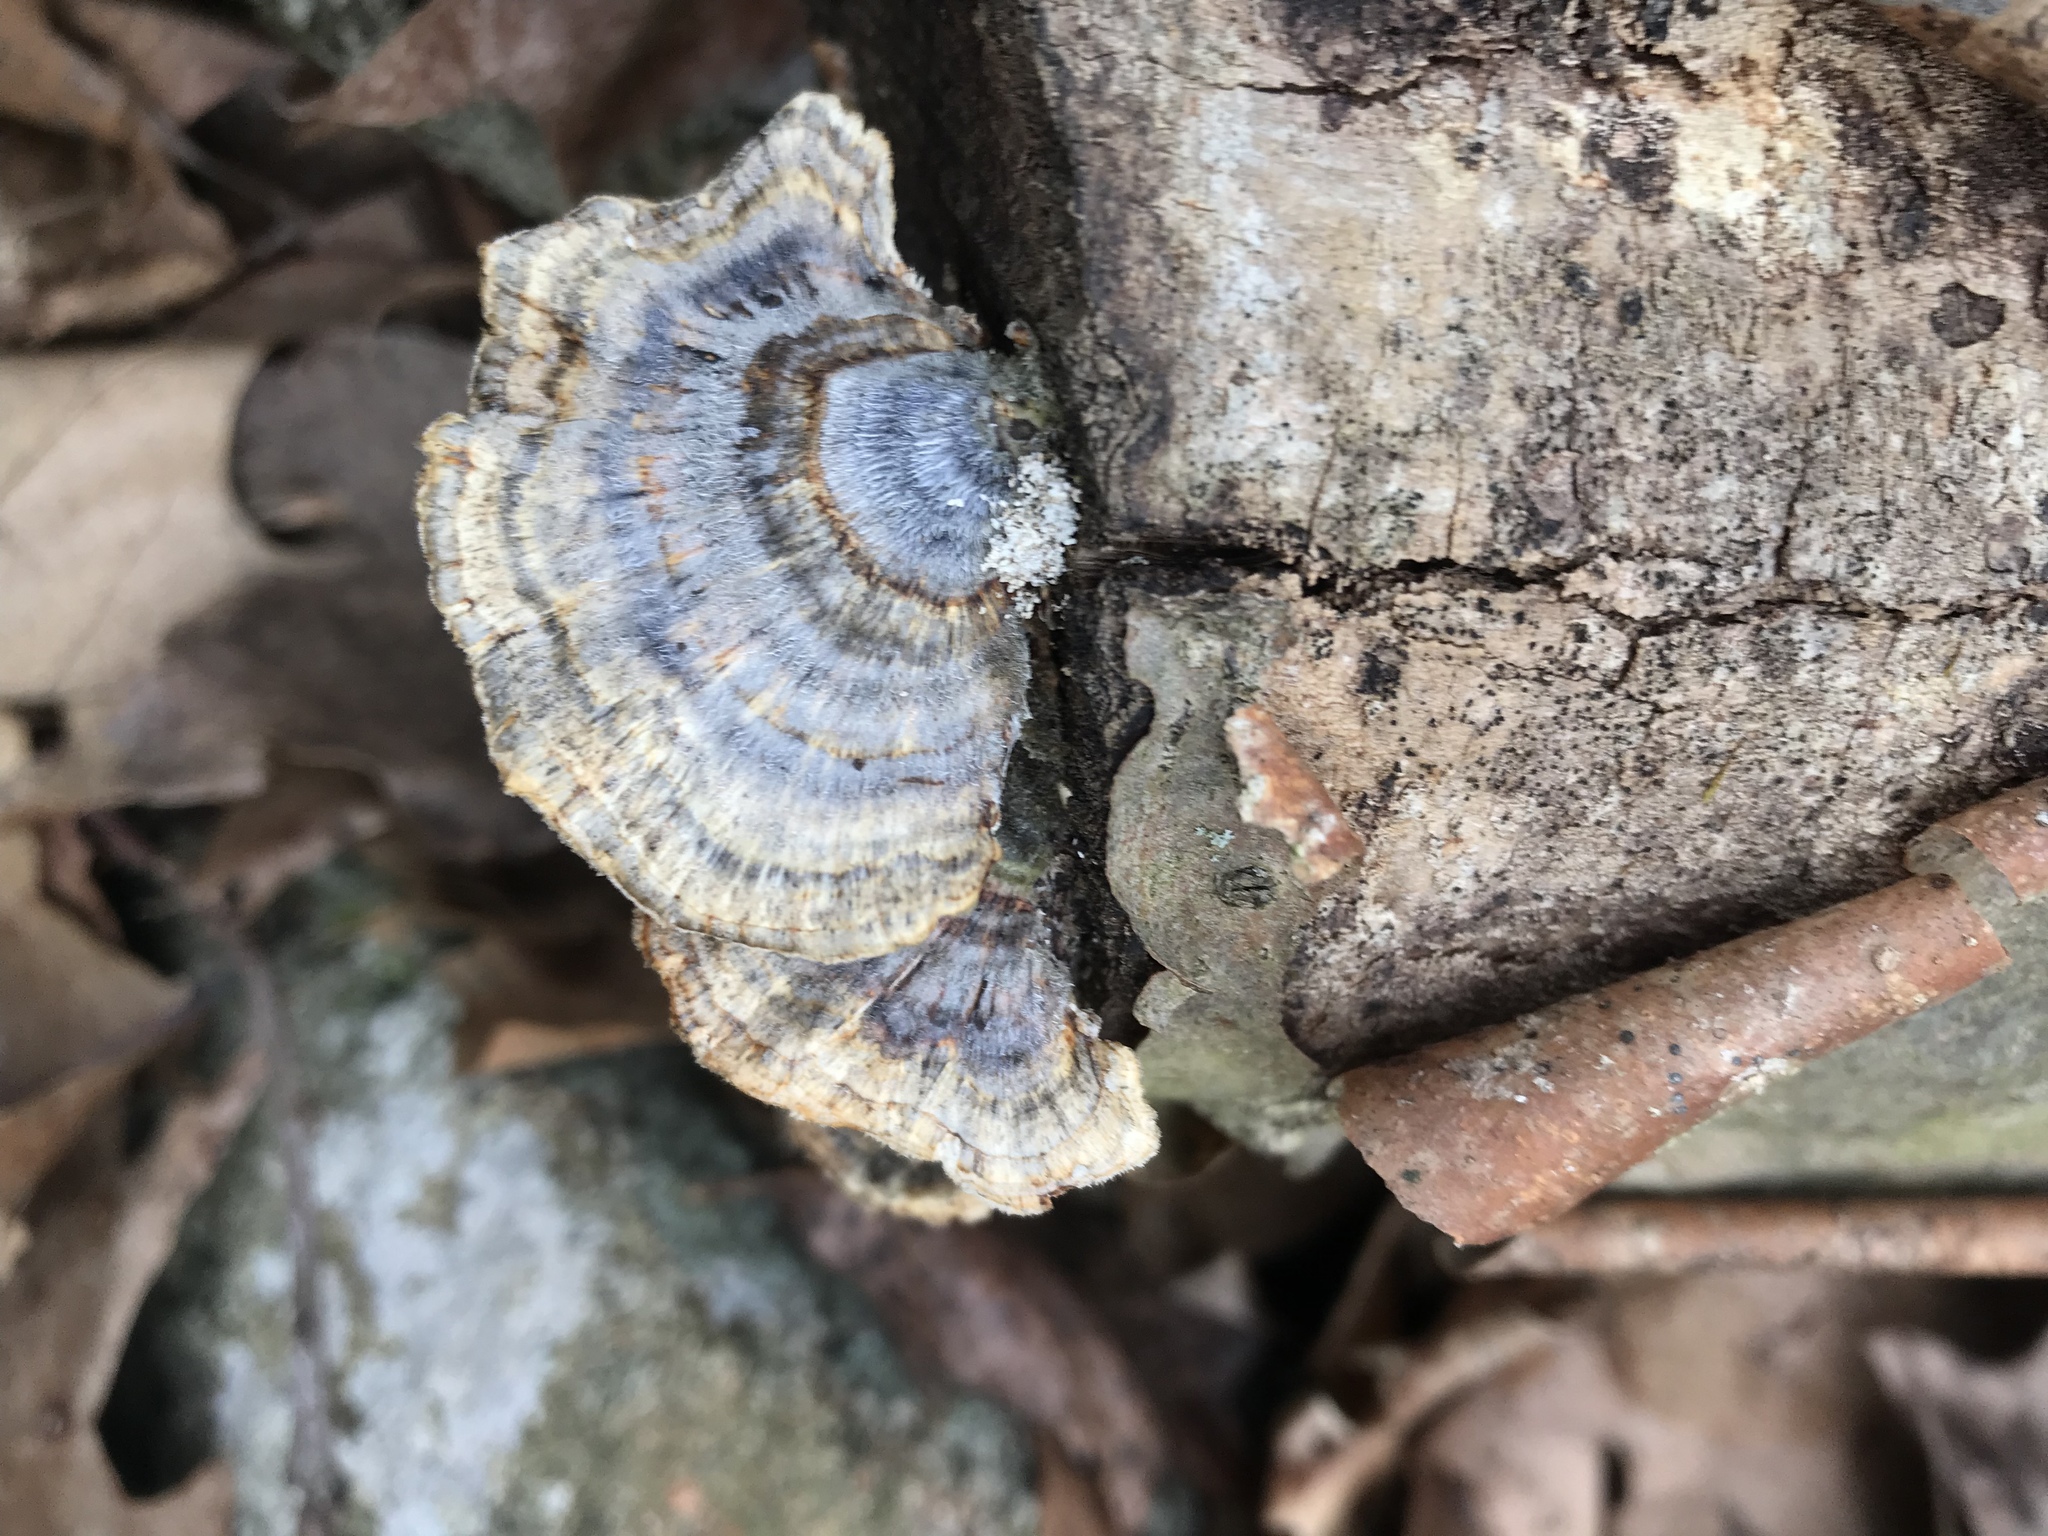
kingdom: Fungi
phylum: Basidiomycota
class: Agaricomycetes
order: Polyporales
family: Polyporaceae
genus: Trametes
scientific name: Trametes versicolor
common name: Turkeytail
